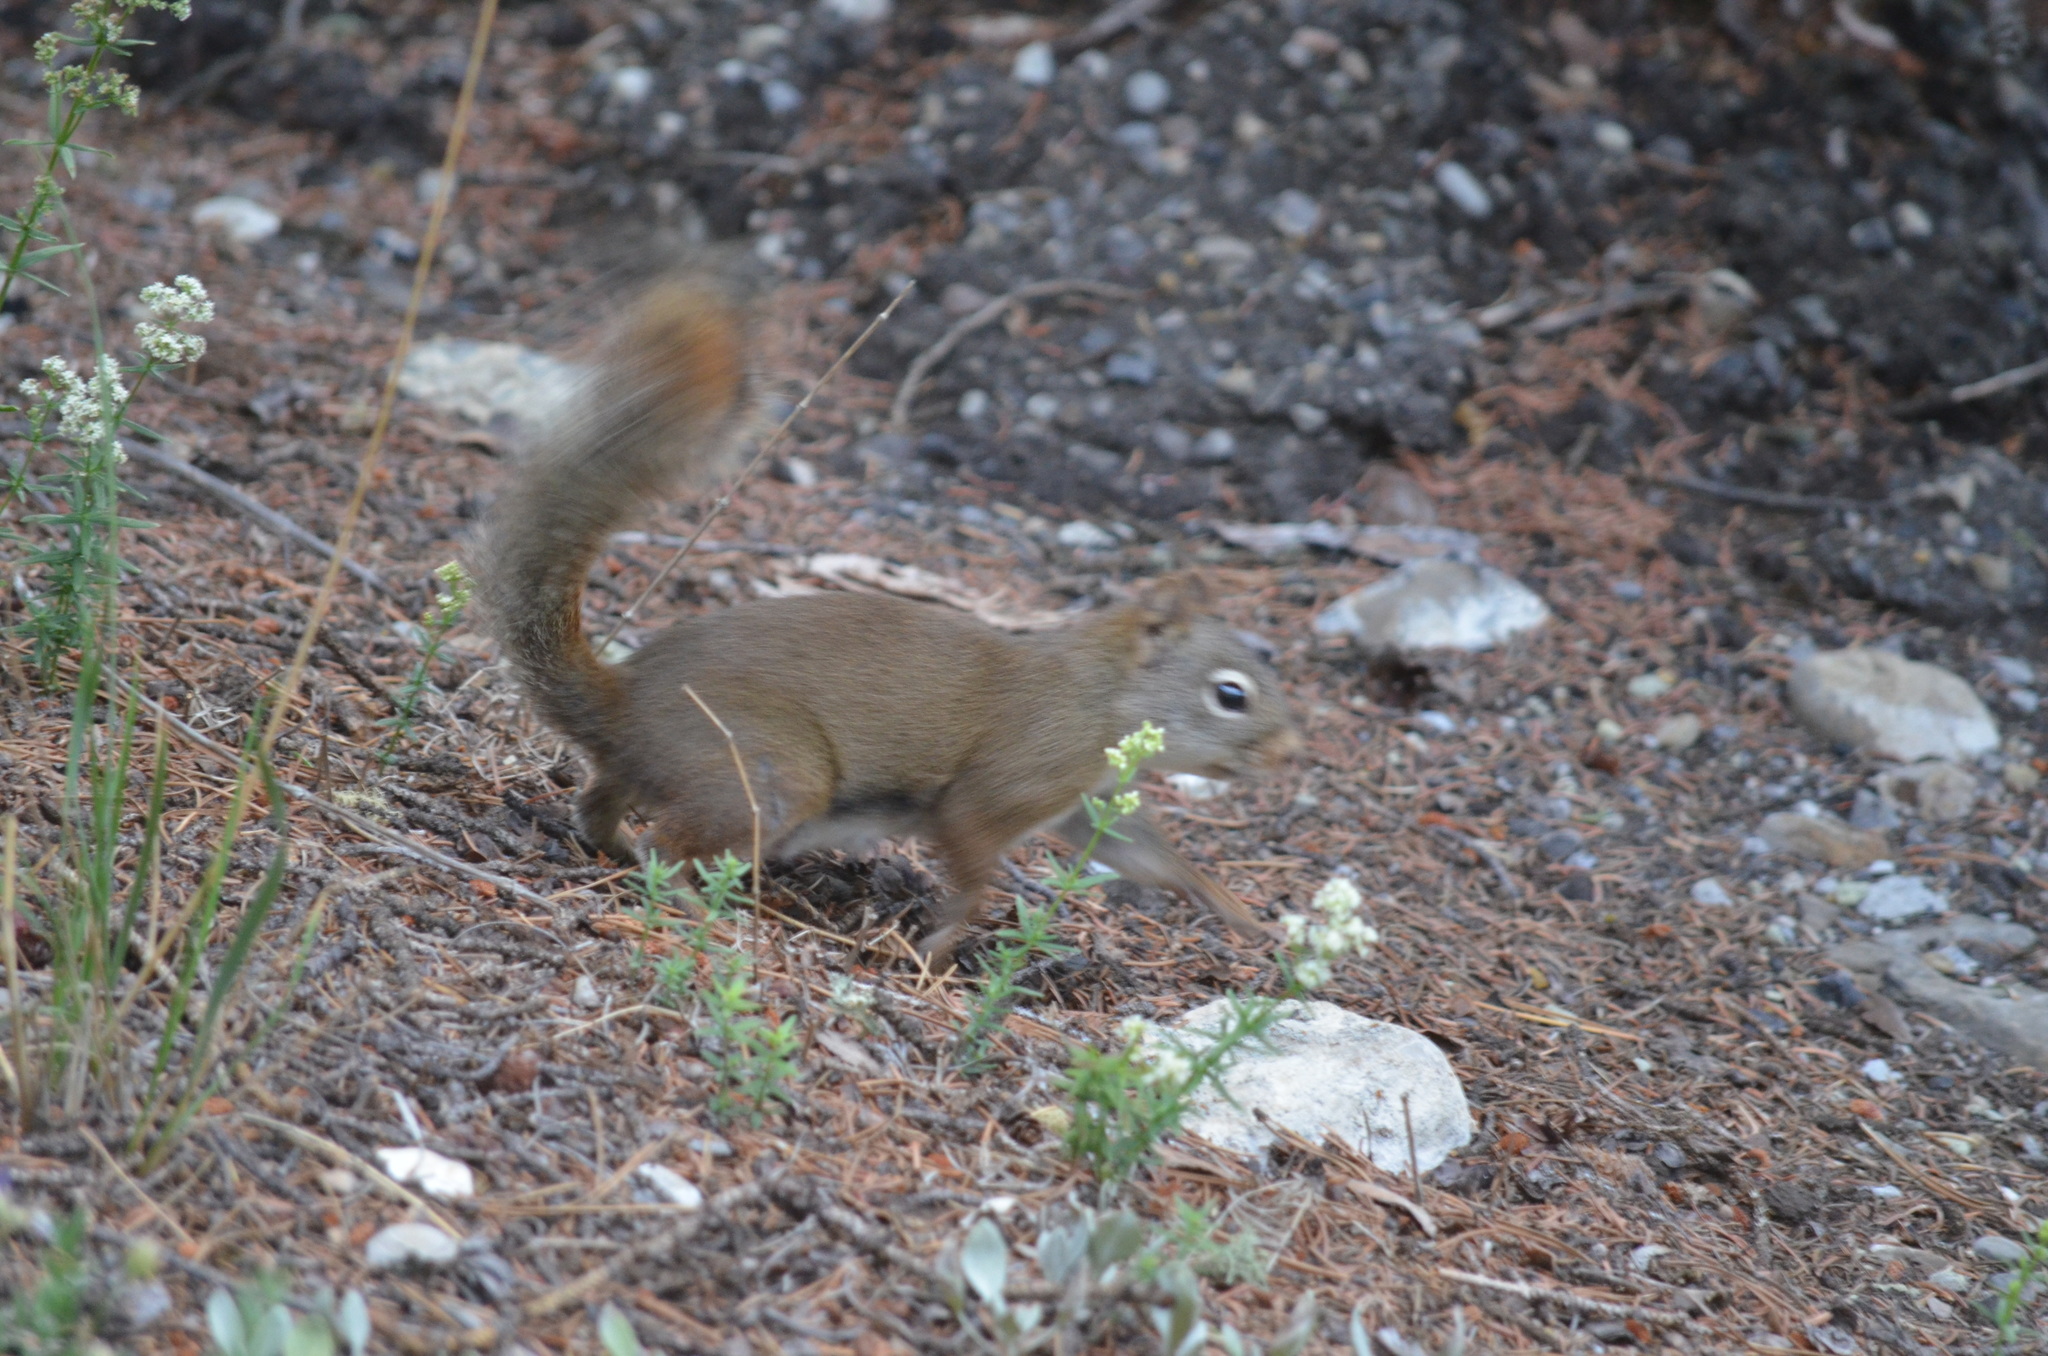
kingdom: Animalia
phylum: Chordata
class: Mammalia
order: Rodentia
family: Sciuridae
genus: Tamiasciurus
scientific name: Tamiasciurus hudsonicus
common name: Red squirrel
